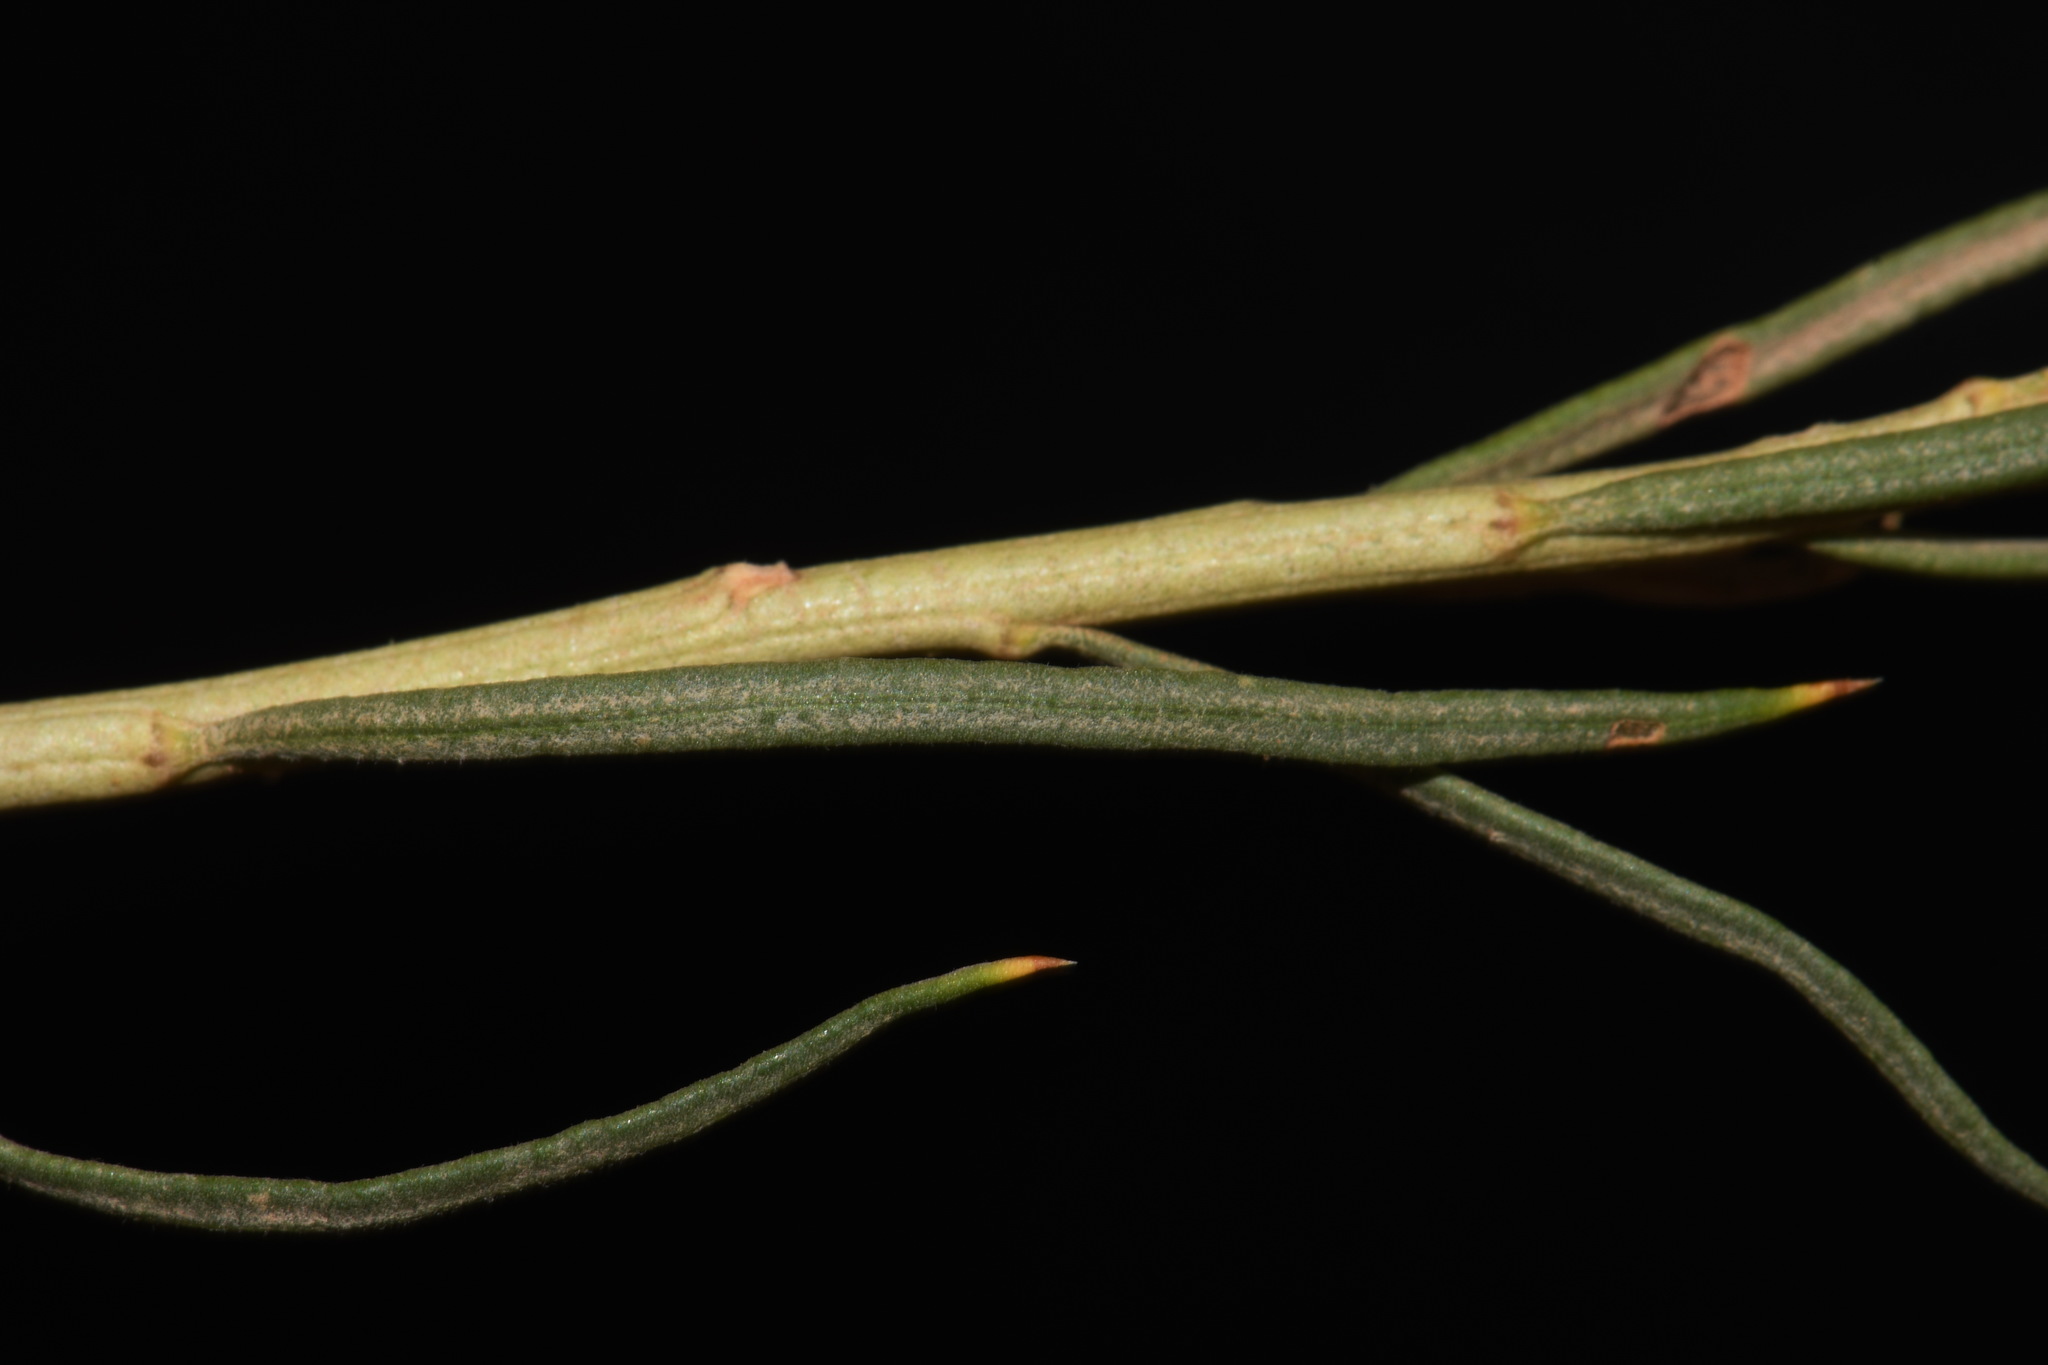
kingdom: Plantae
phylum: Tracheophyta
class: Magnoliopsida
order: Asterales
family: Asteraceae
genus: Ericameria
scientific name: Ericameria nauseosa
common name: Rubber rabbitbrush
